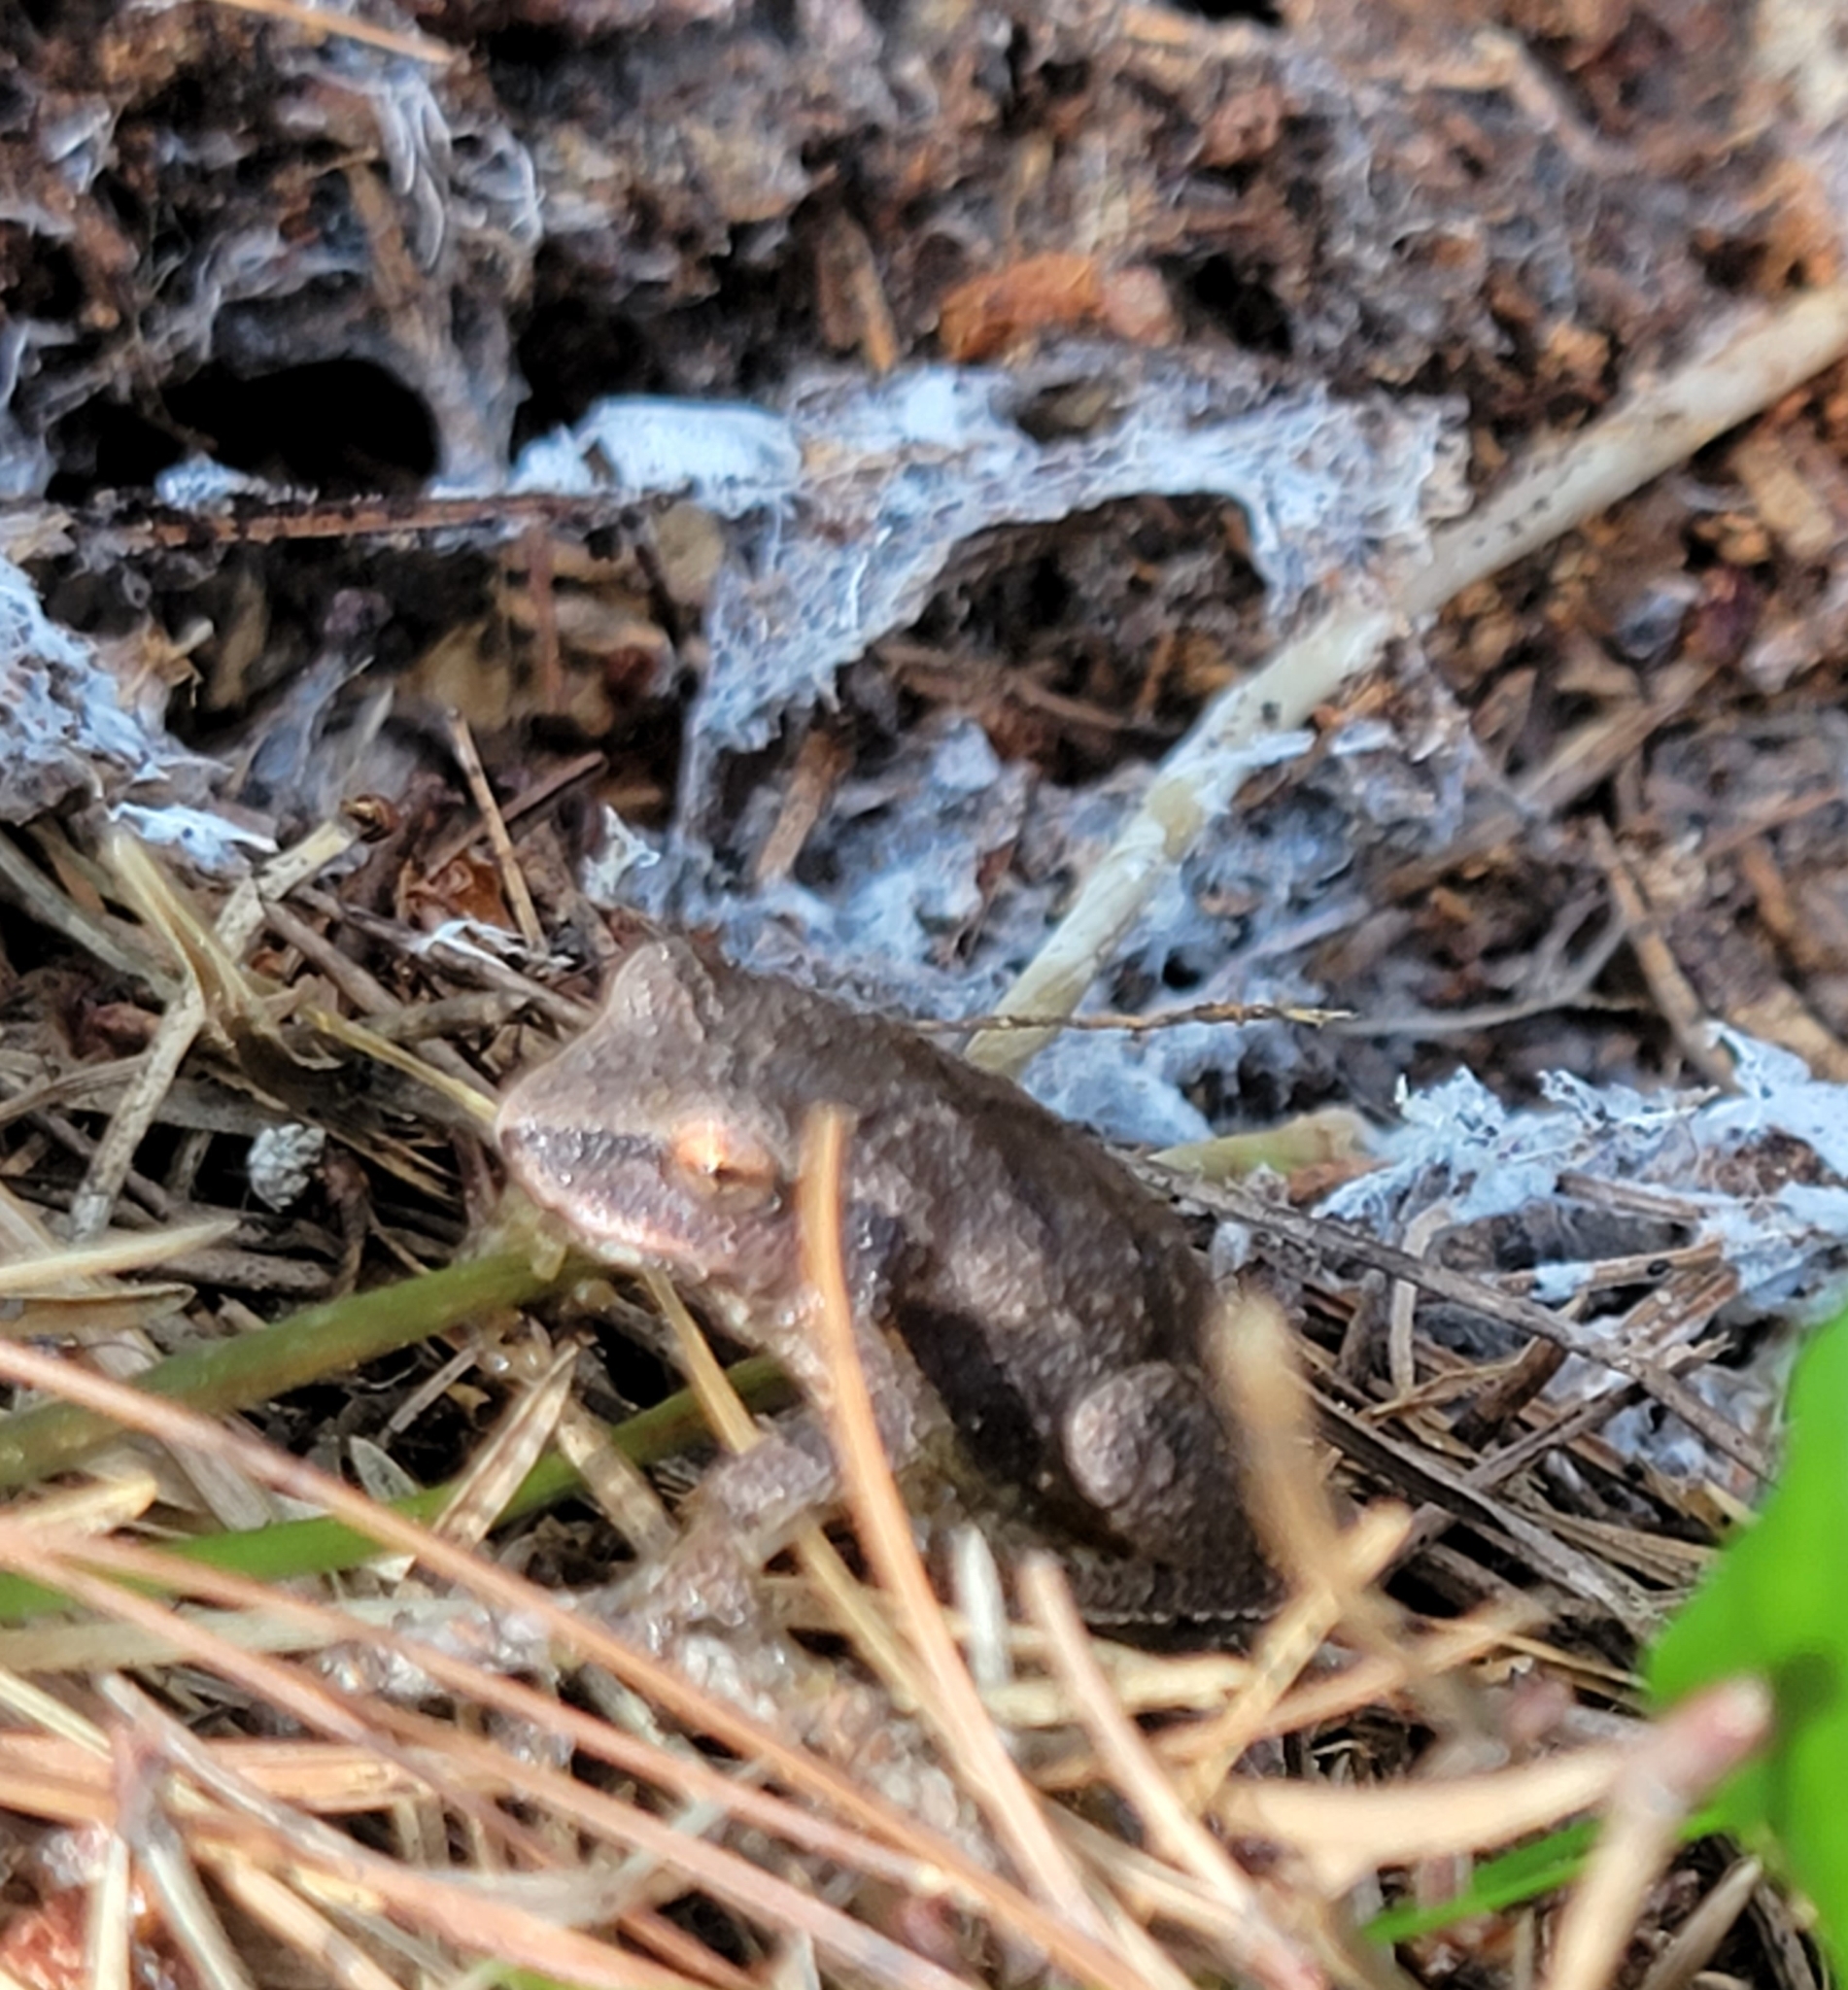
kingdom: Animalia
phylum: Chordata
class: Amphibia
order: Anura
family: Hylidae
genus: Pseudacris
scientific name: Pseudacris crucifer
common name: Spring peeper
